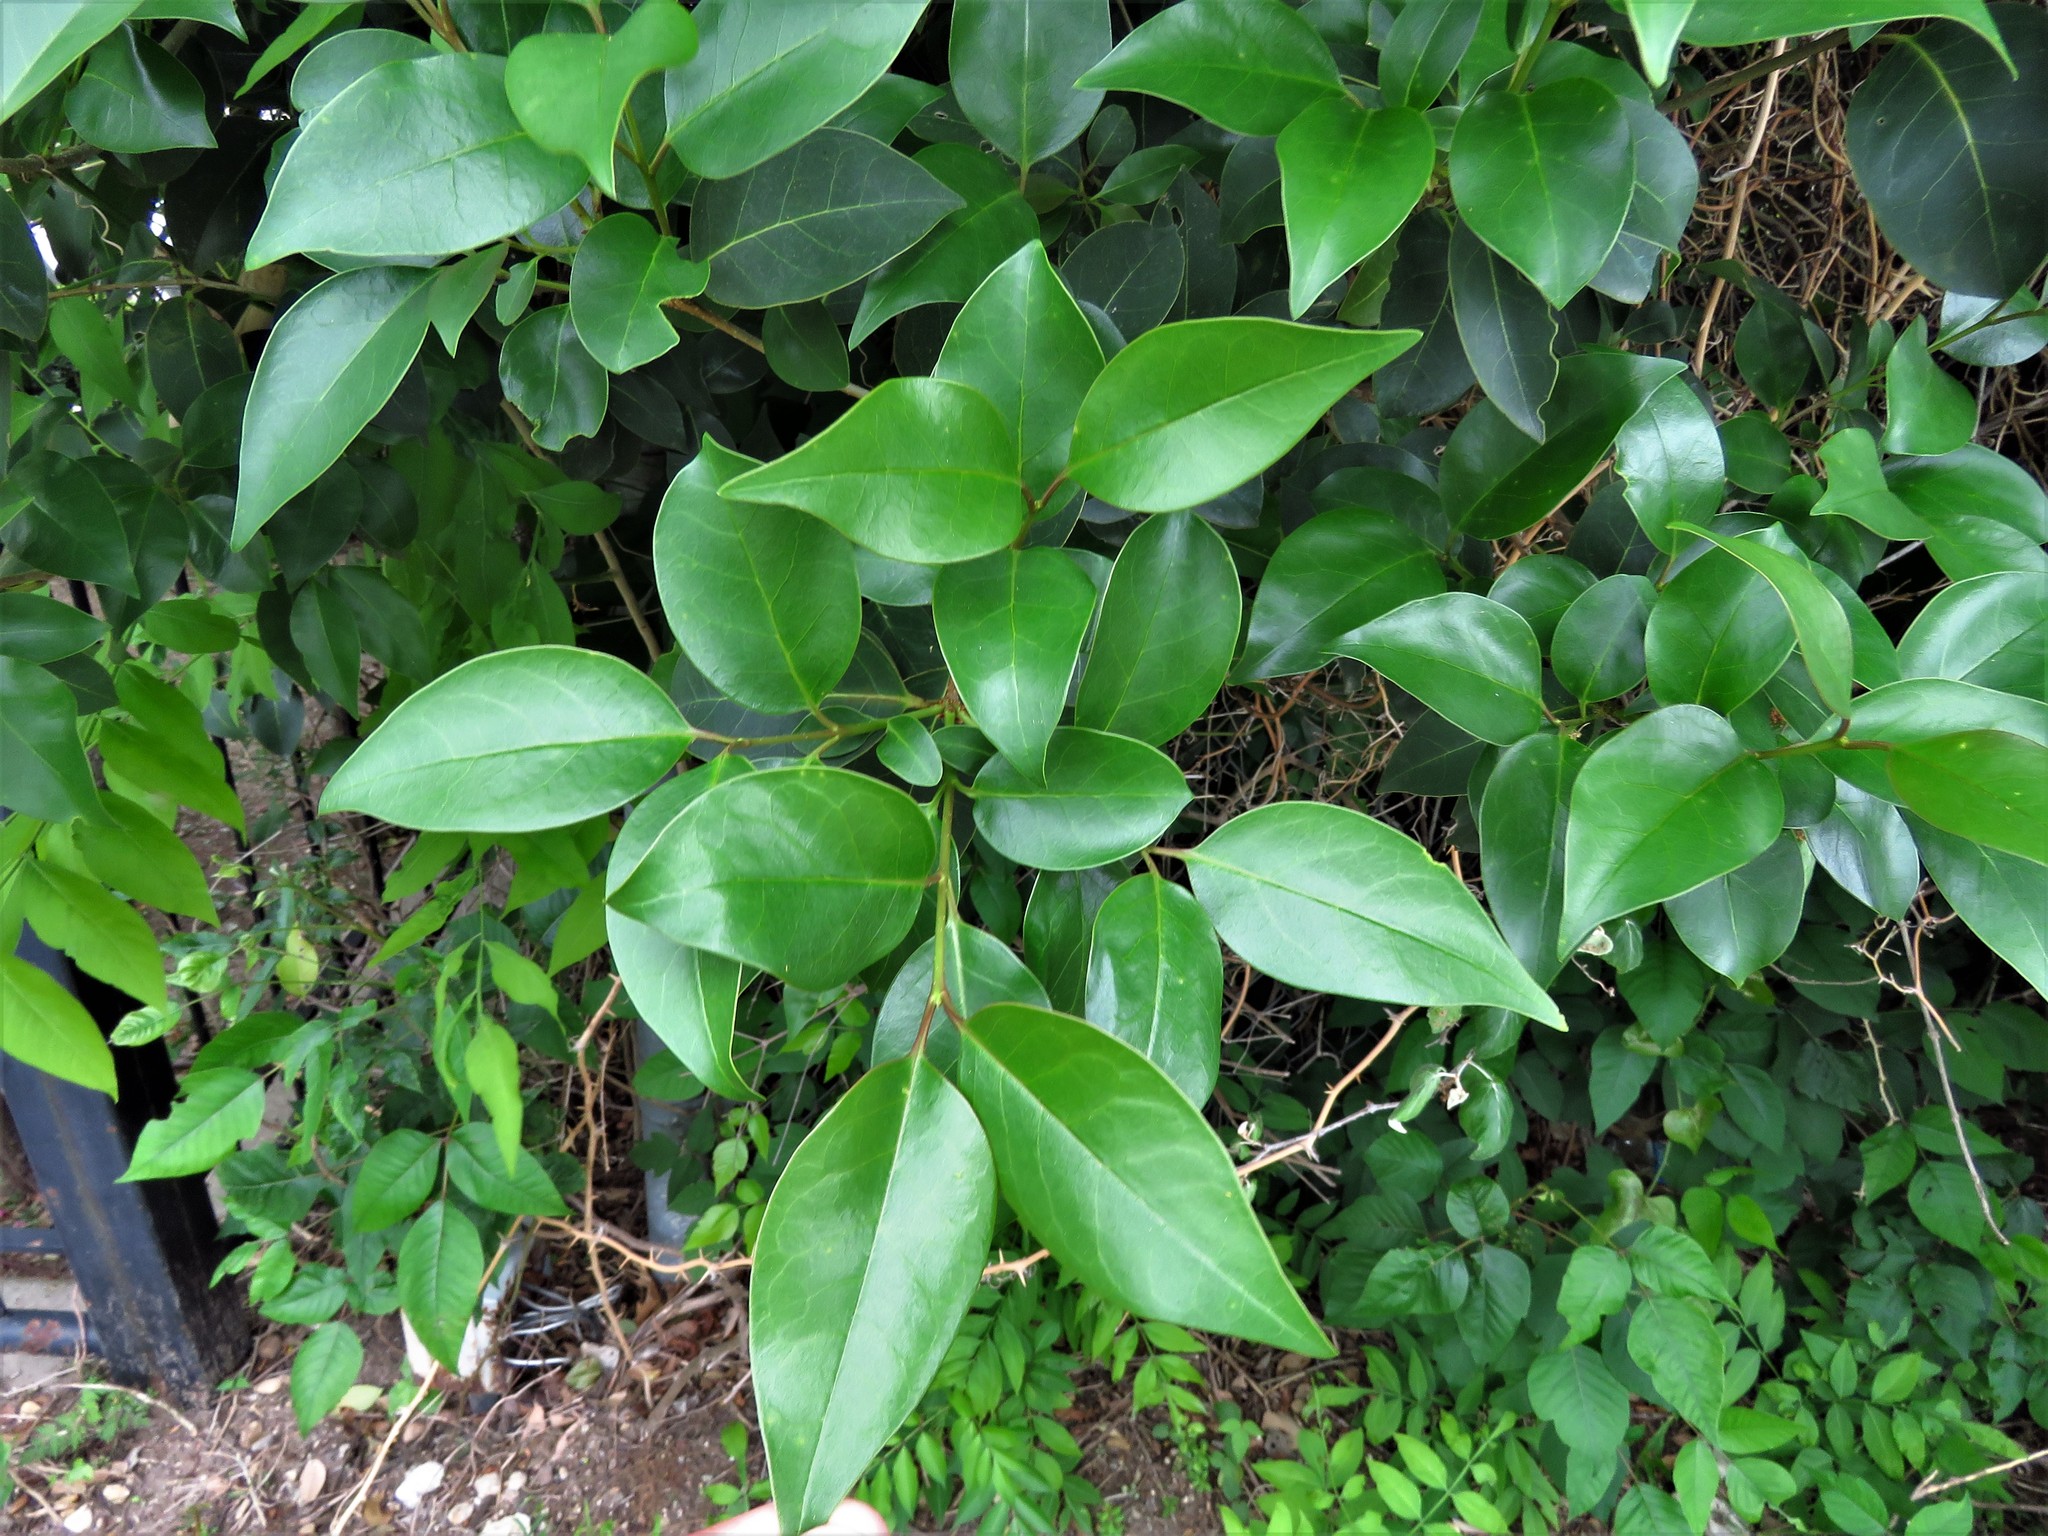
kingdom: Plantae
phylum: Tracheophyta
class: Magnoliopsida
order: Lamiales
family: Oleaceae
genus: Ligustrum
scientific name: Ligustrum lucidum
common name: Glossy privet
